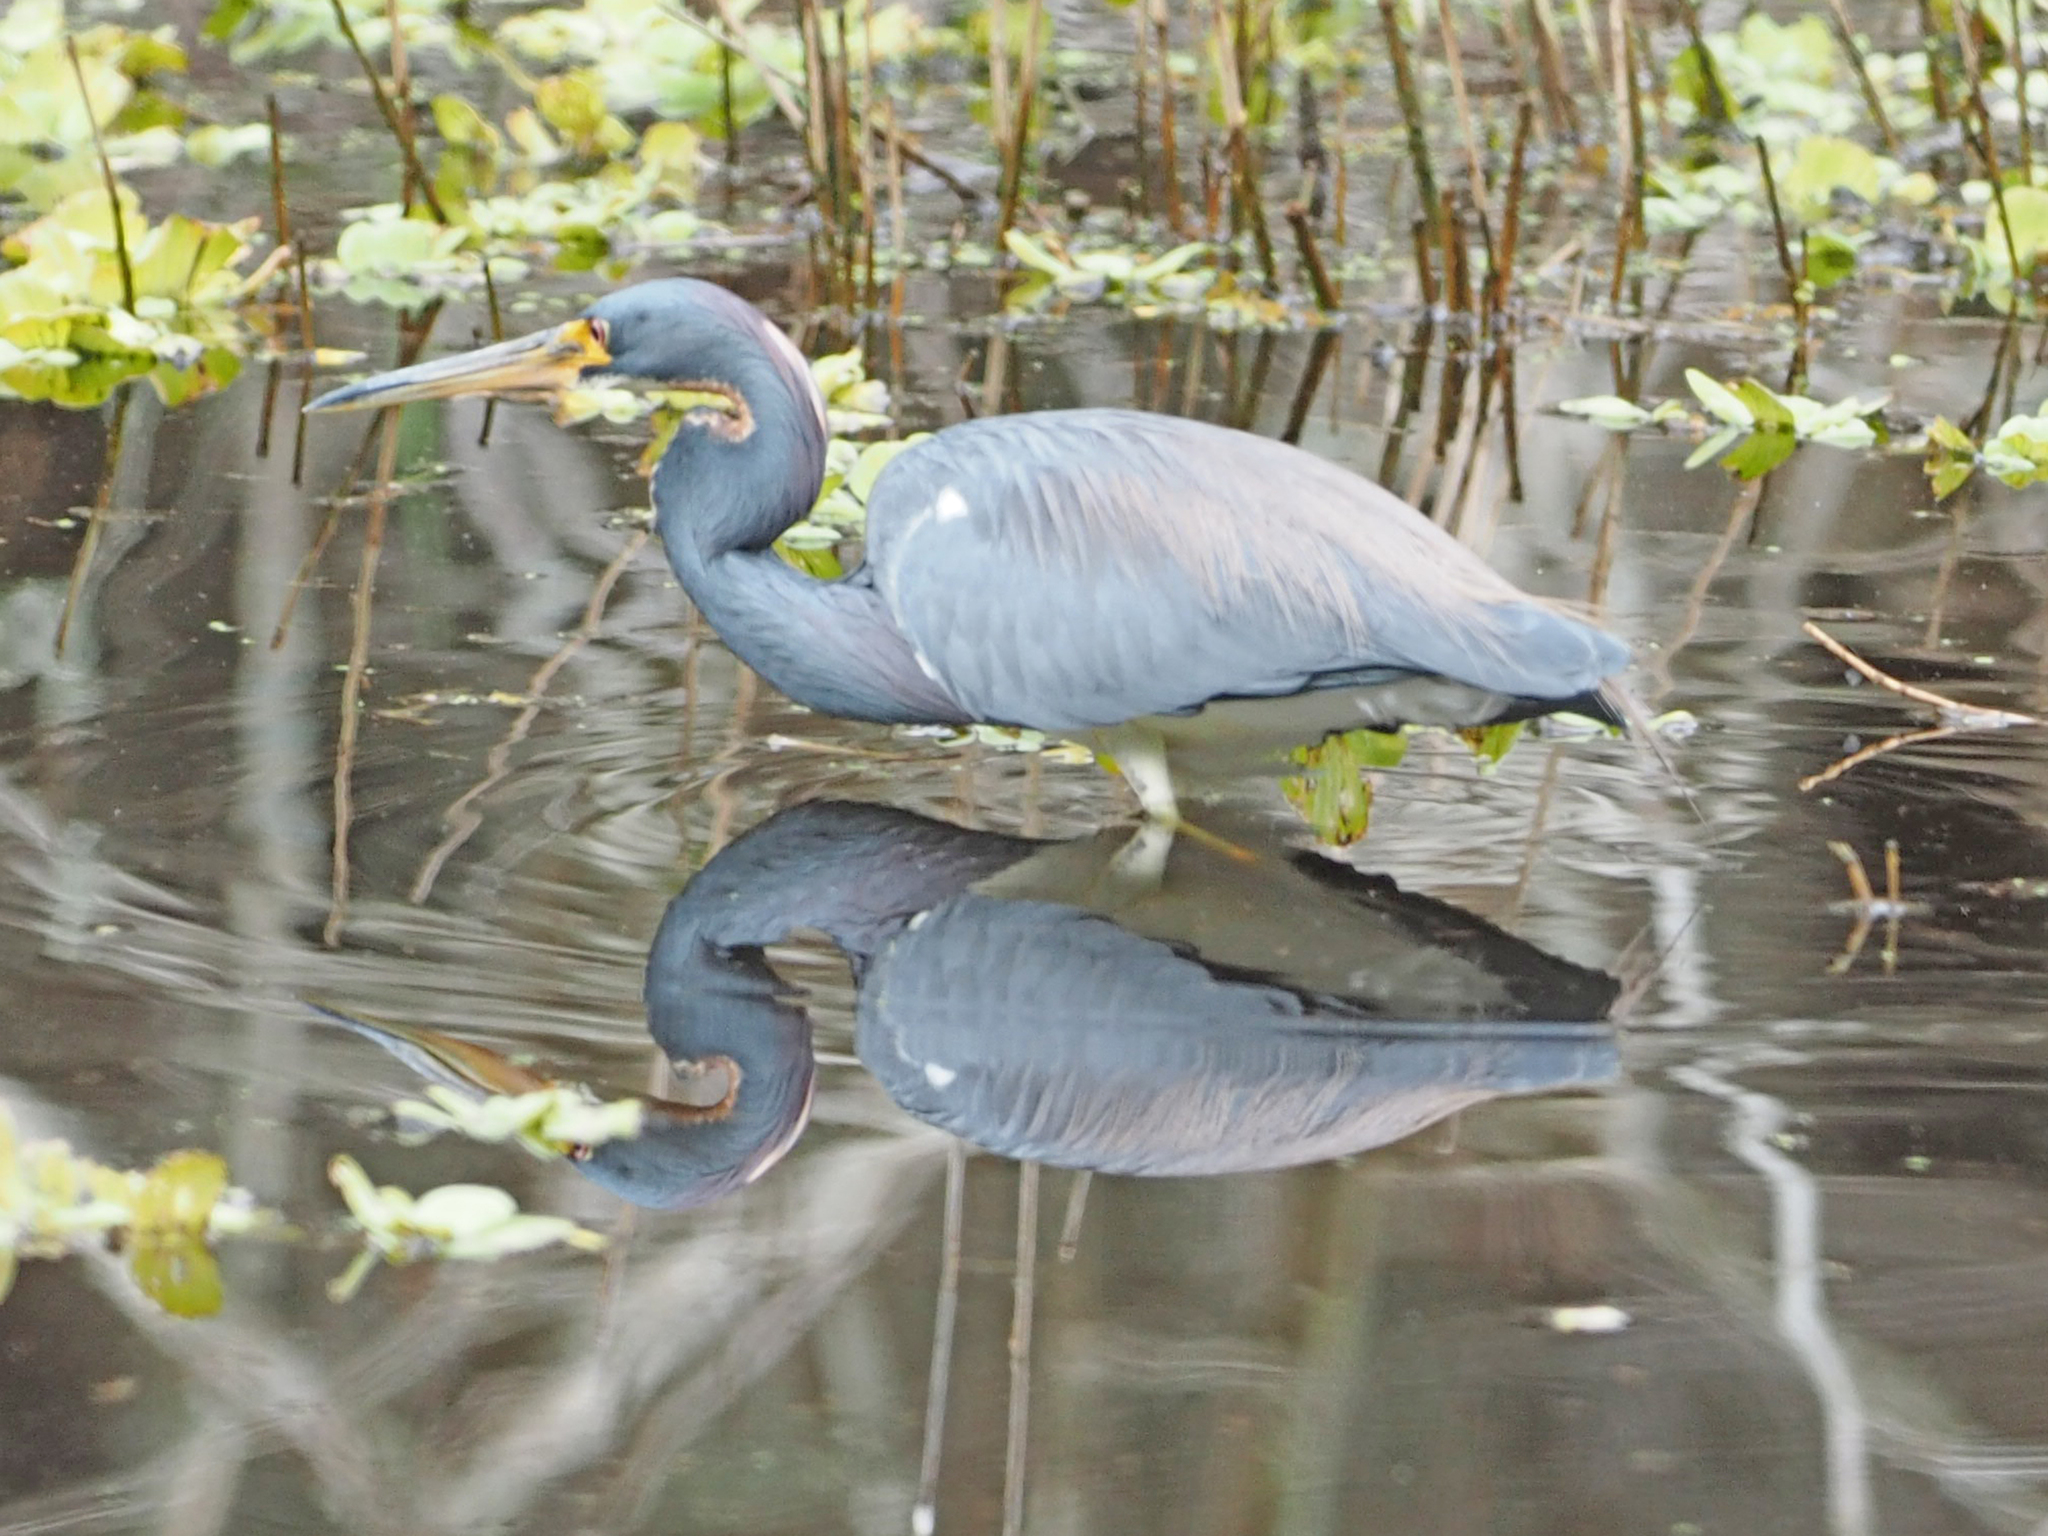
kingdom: Animalia
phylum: Chordata
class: Aves
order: Pelecaniformes
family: Ardeidae
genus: Egretta
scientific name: Egretta tricolor
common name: Tricolored heron
